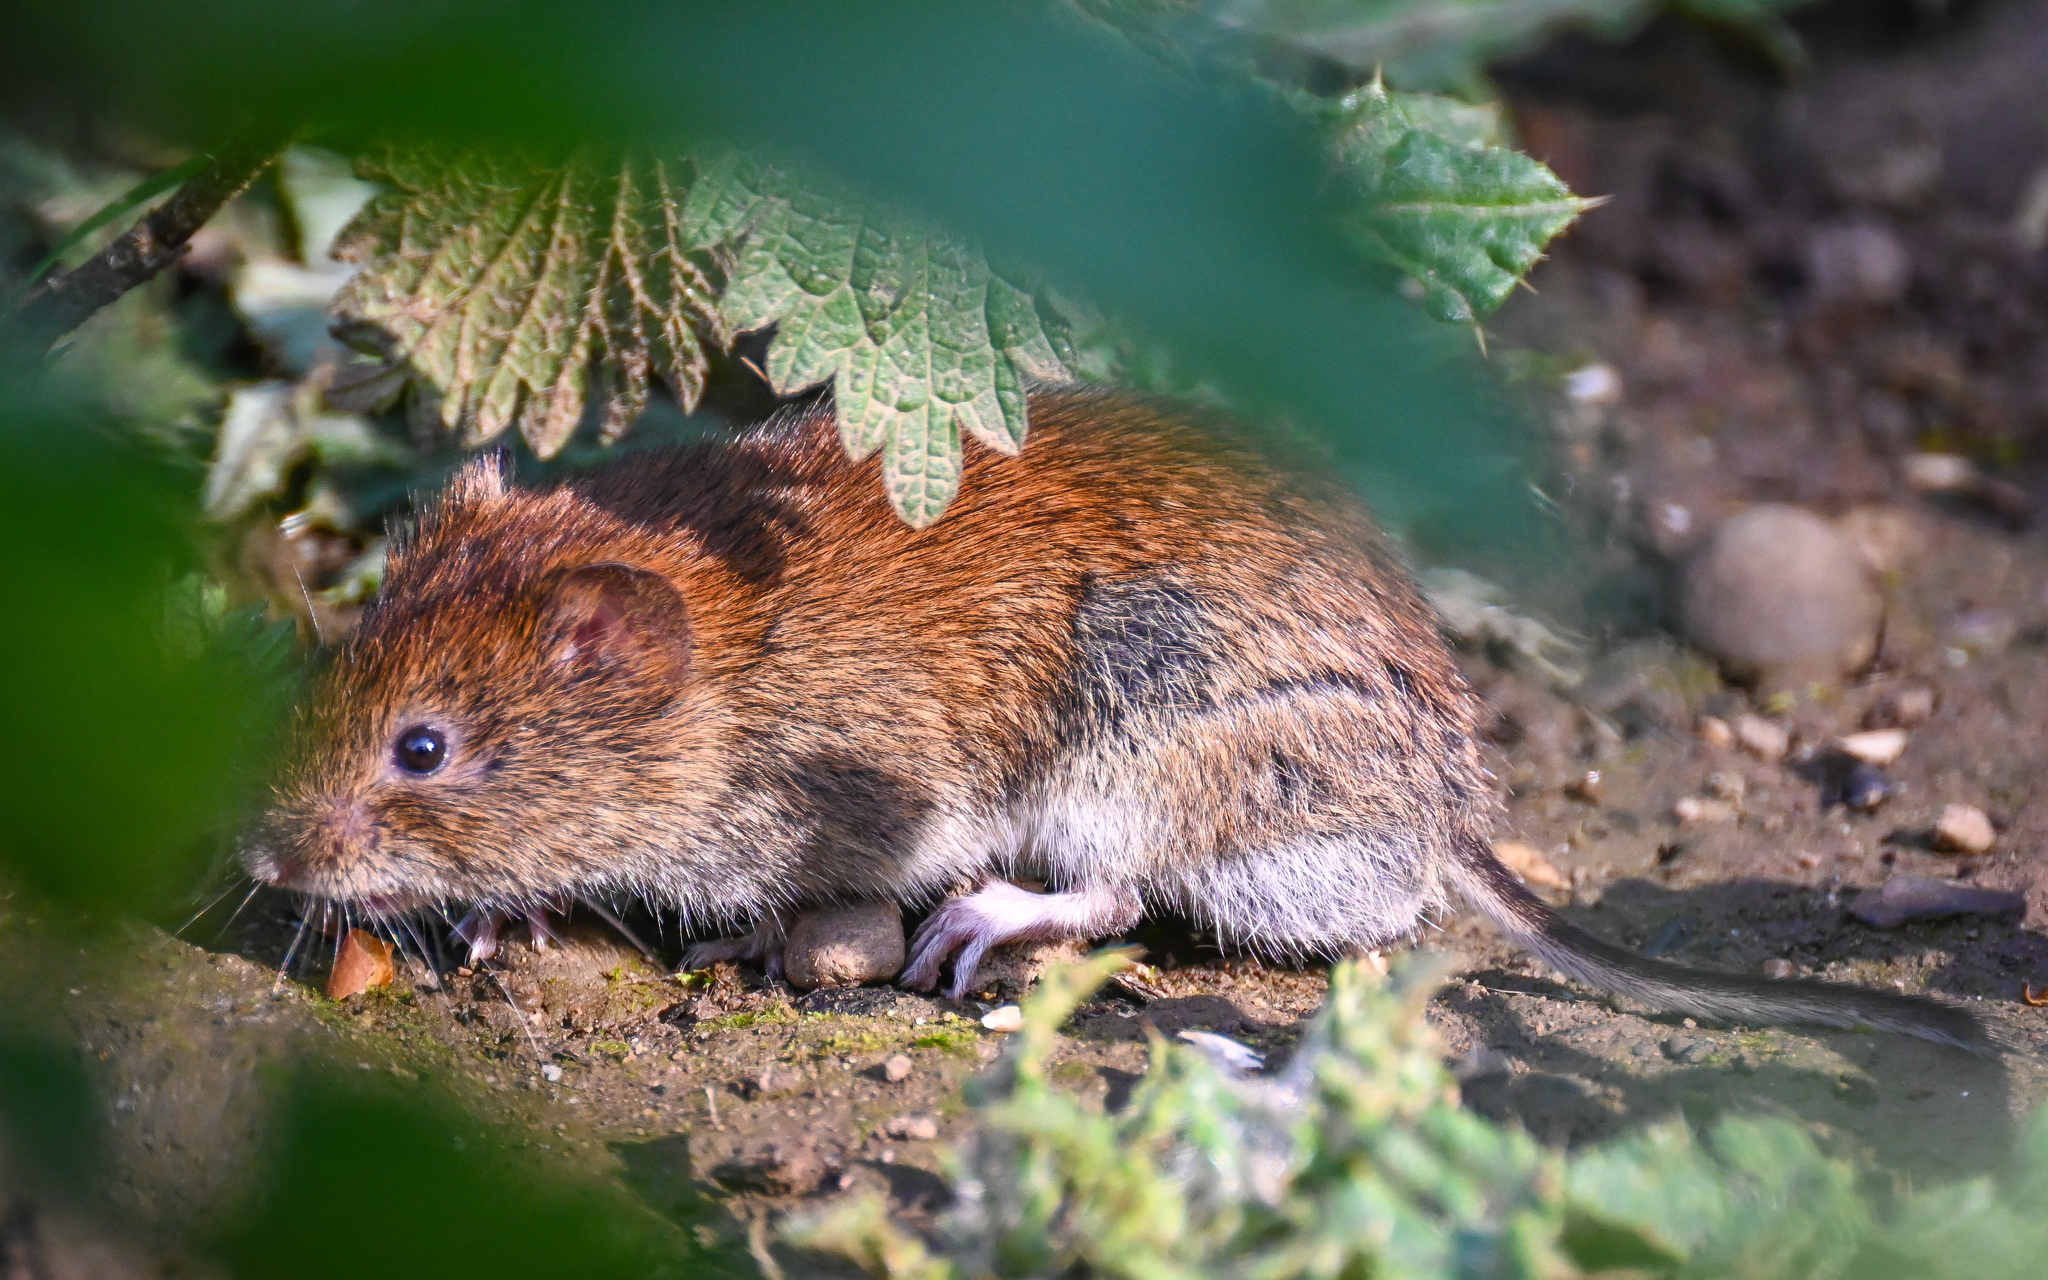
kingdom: Animalia
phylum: Chordata
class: Mammalia
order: Rodentia
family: Cricetidae
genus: Myodes
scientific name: Myodes glareolus
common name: Bank vole
